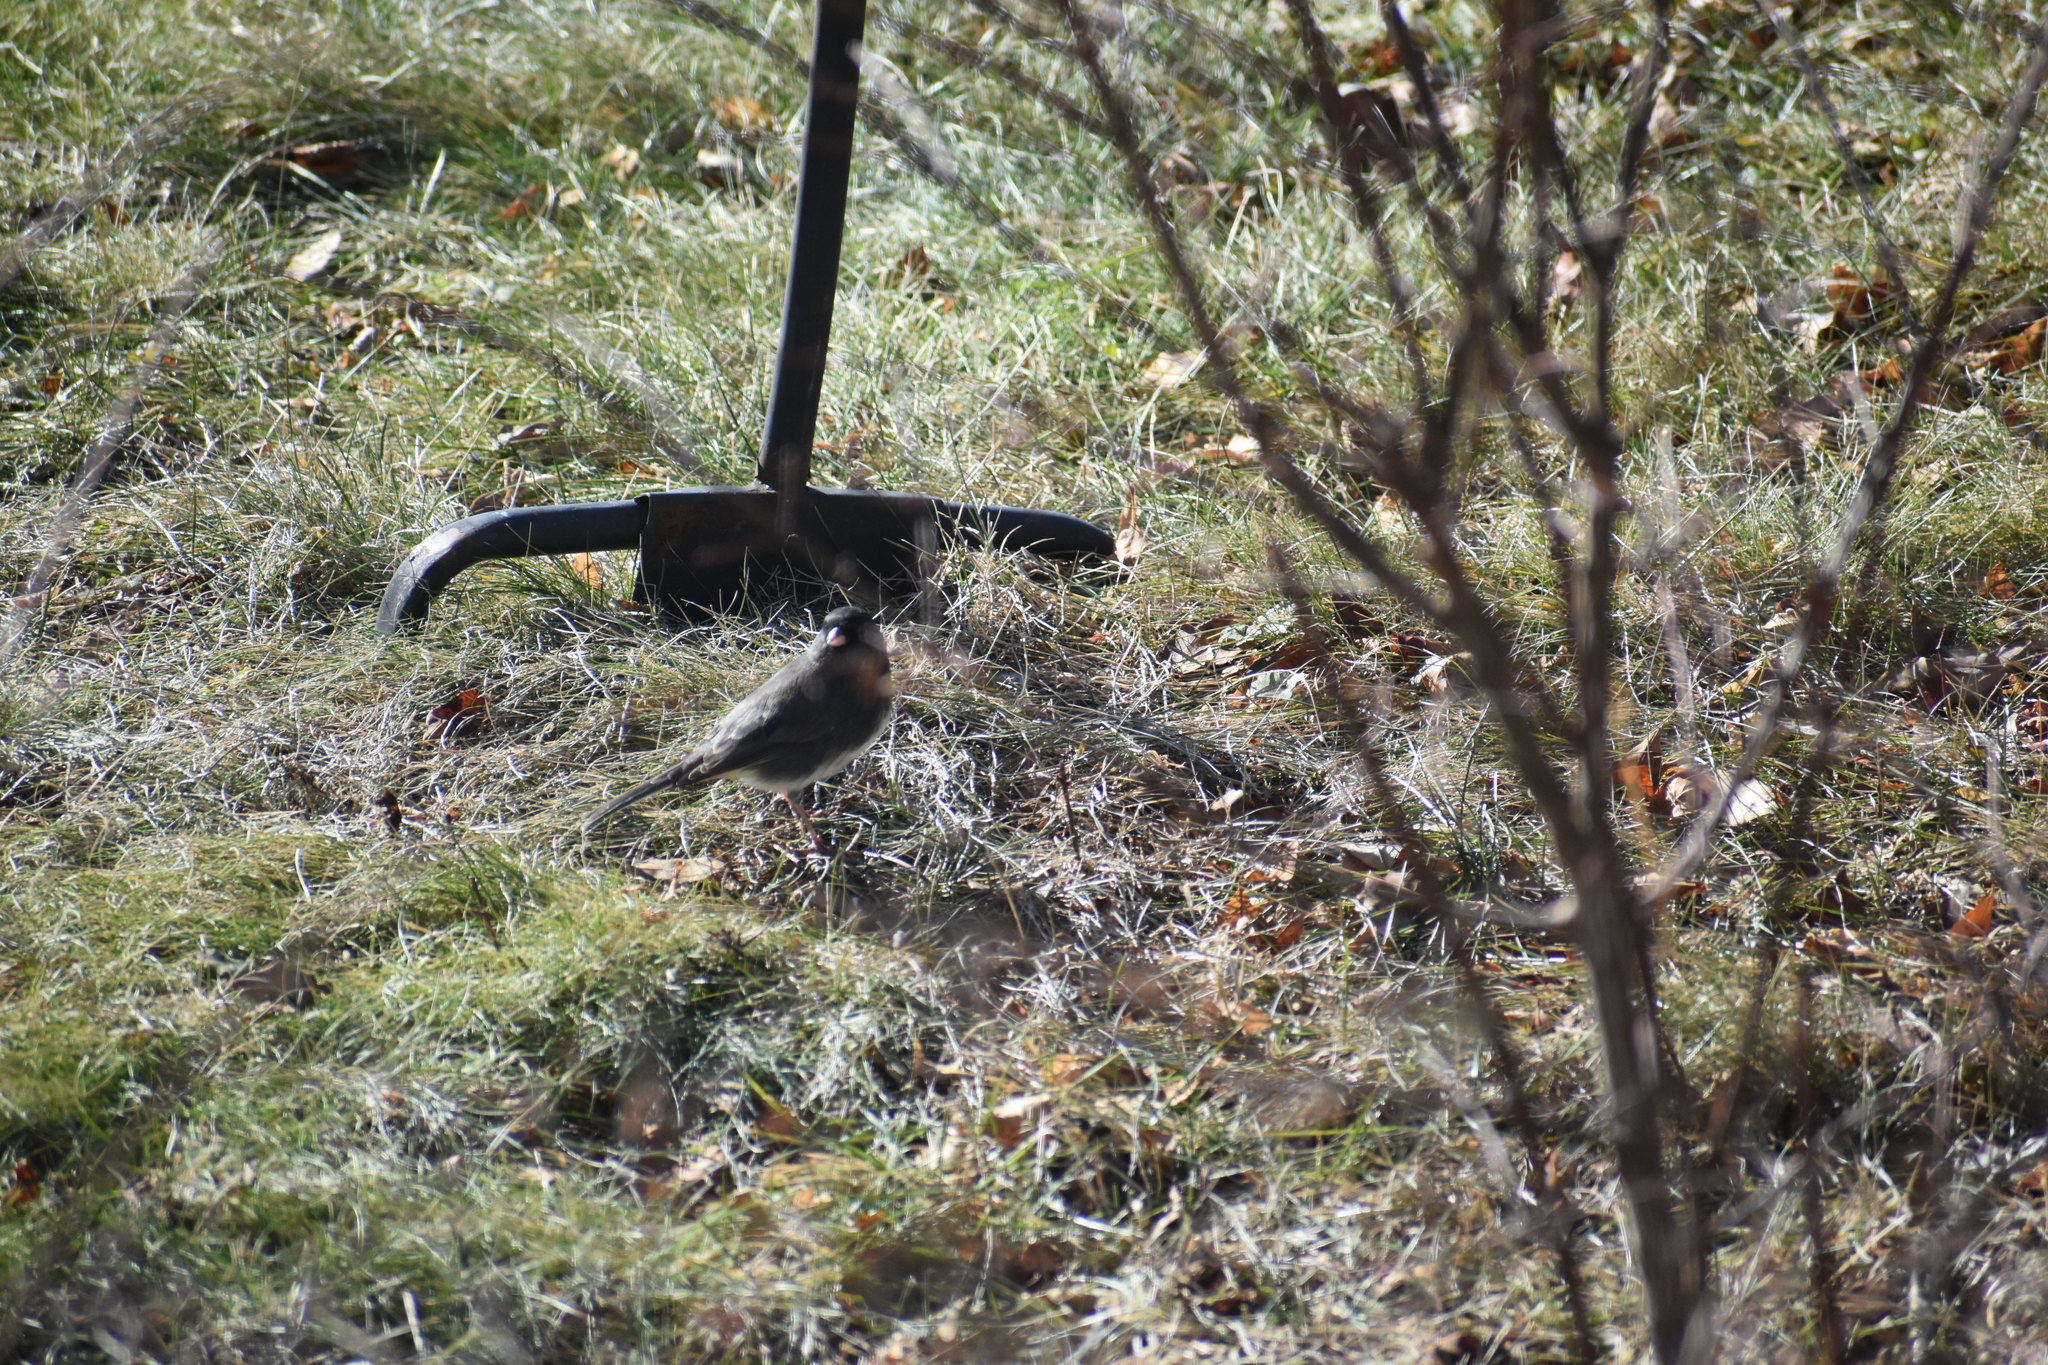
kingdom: Animalia
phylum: Chordata
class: Aves
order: Passeriformes
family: Passerellidae
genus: Junco
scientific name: Junco hyemalis
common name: Dark-eyed junco
